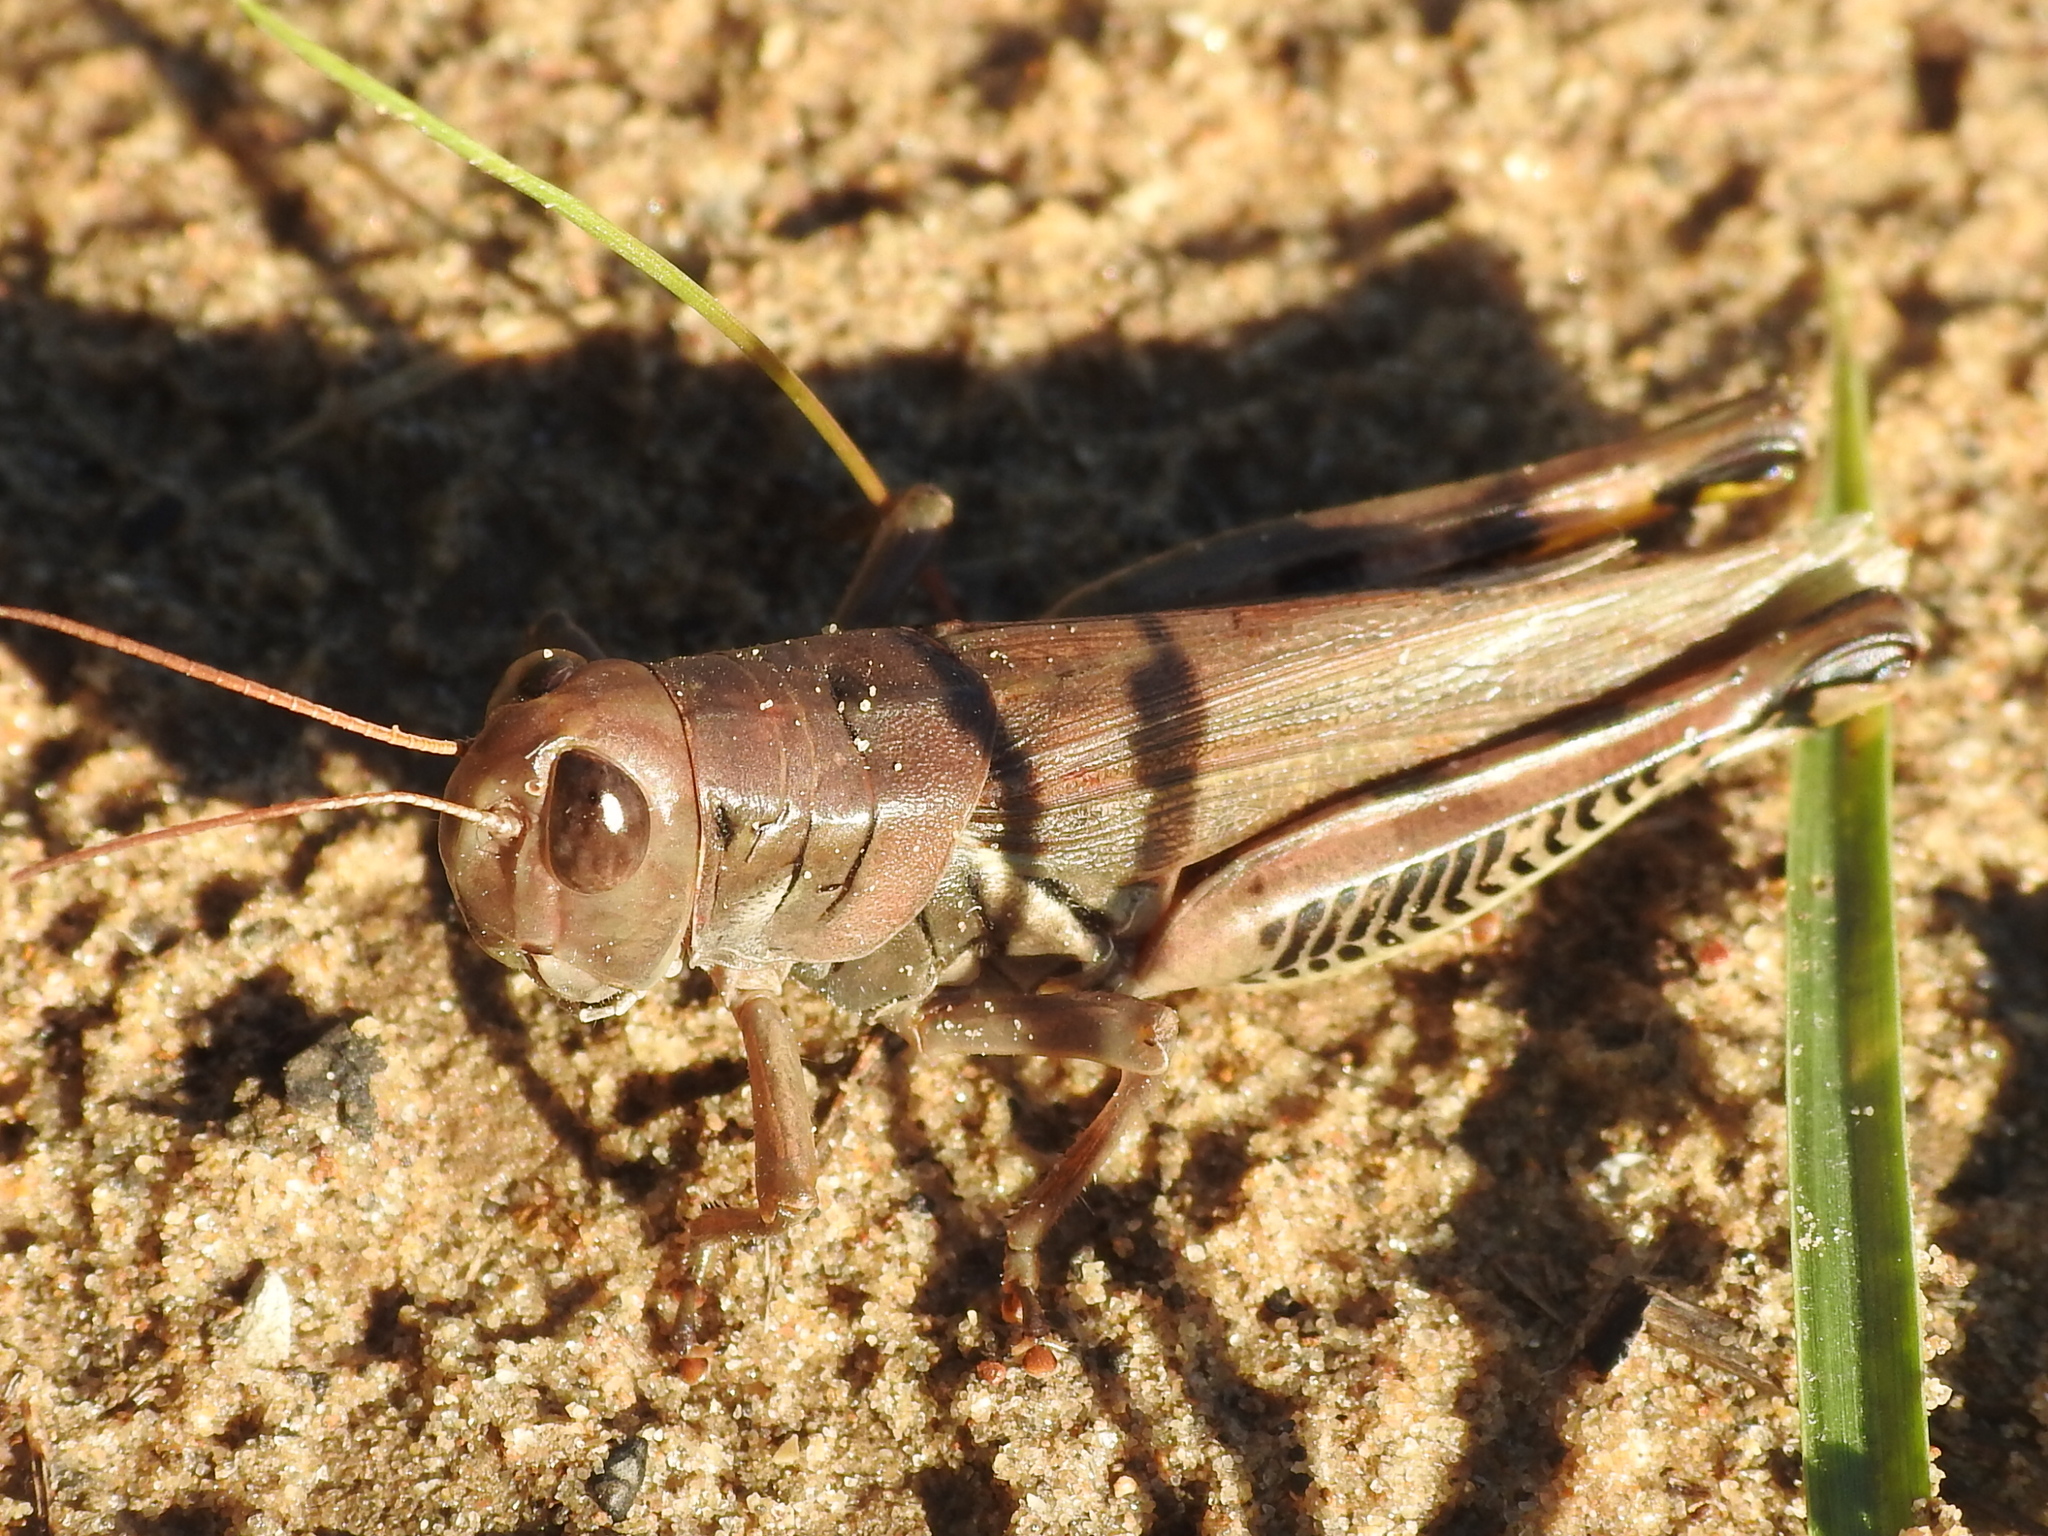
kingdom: Animalia
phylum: Arthropoda
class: Insecta
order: Orthoptera
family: Acrididae
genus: Melanoplus
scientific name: Melanoplus differentialis
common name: Differential grasshopper
